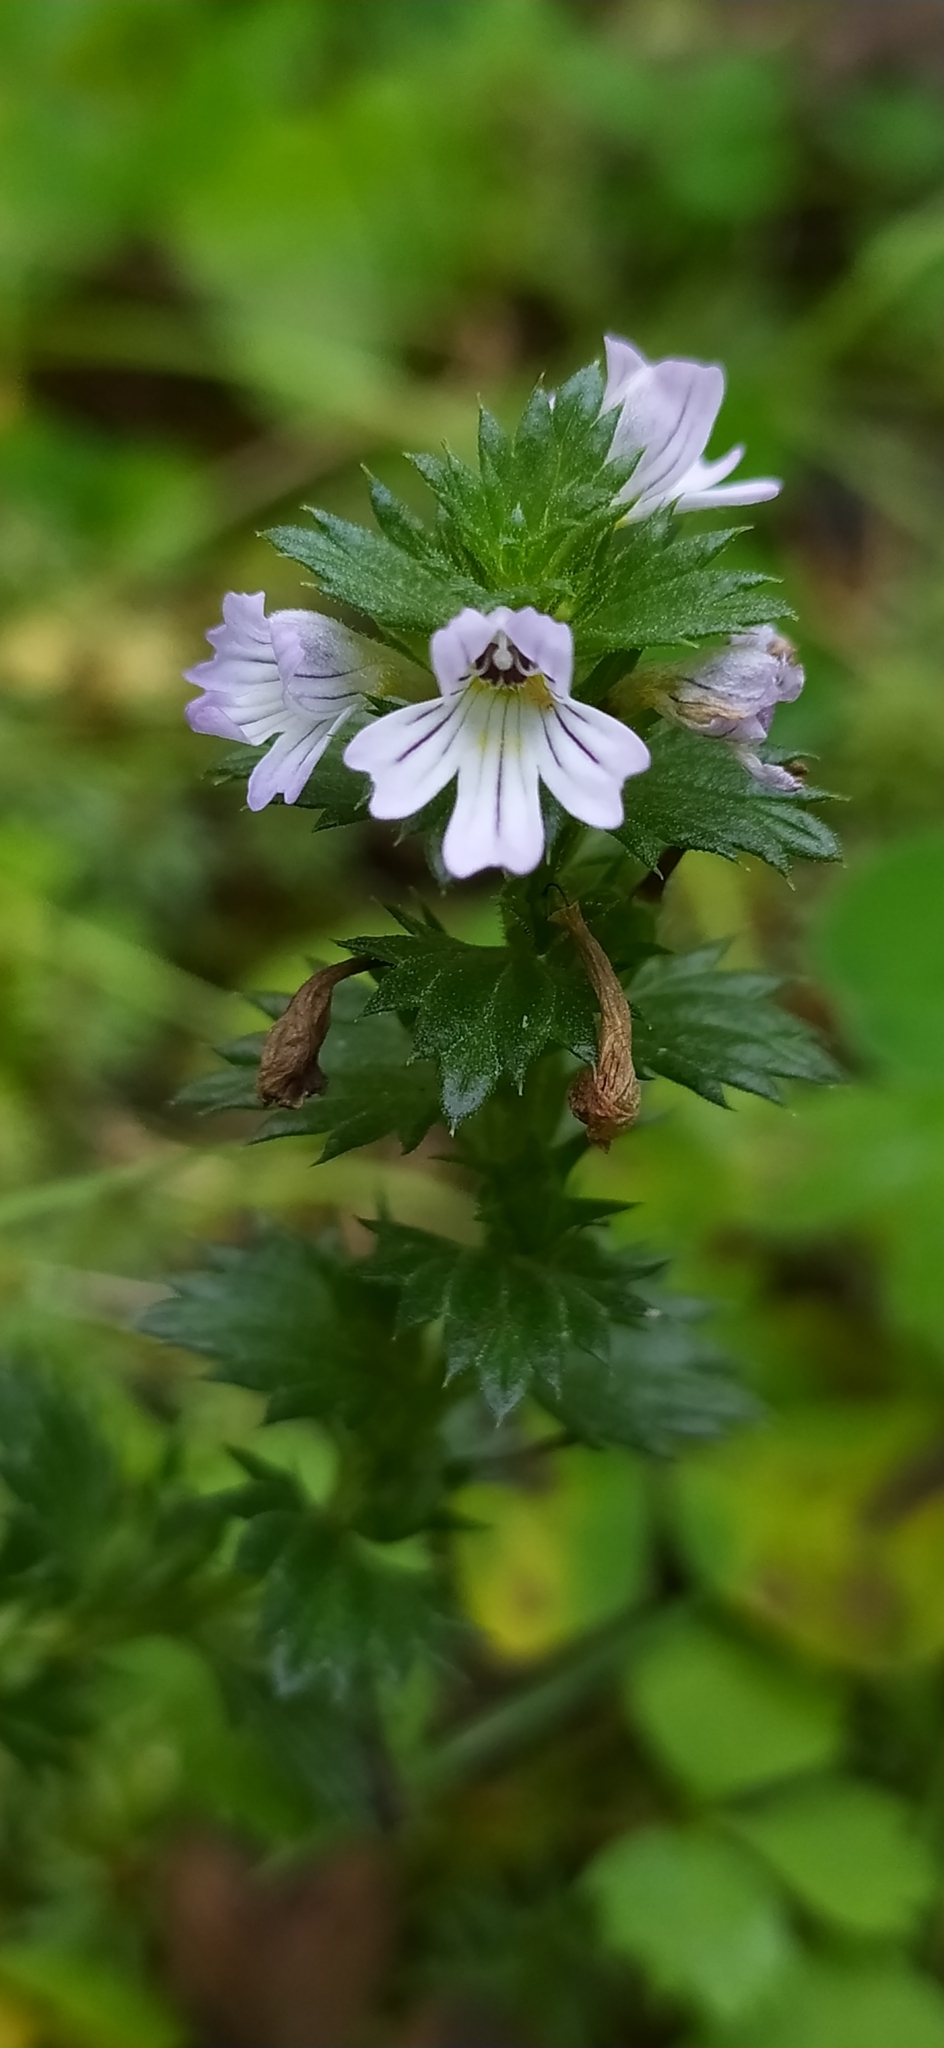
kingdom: Plantae
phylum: Tracheophyta
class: Magnoliopsida
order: Lamiales
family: Orobanchaceae
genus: Euphrasia
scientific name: Euphrasia stricta
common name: Drug eyebright
